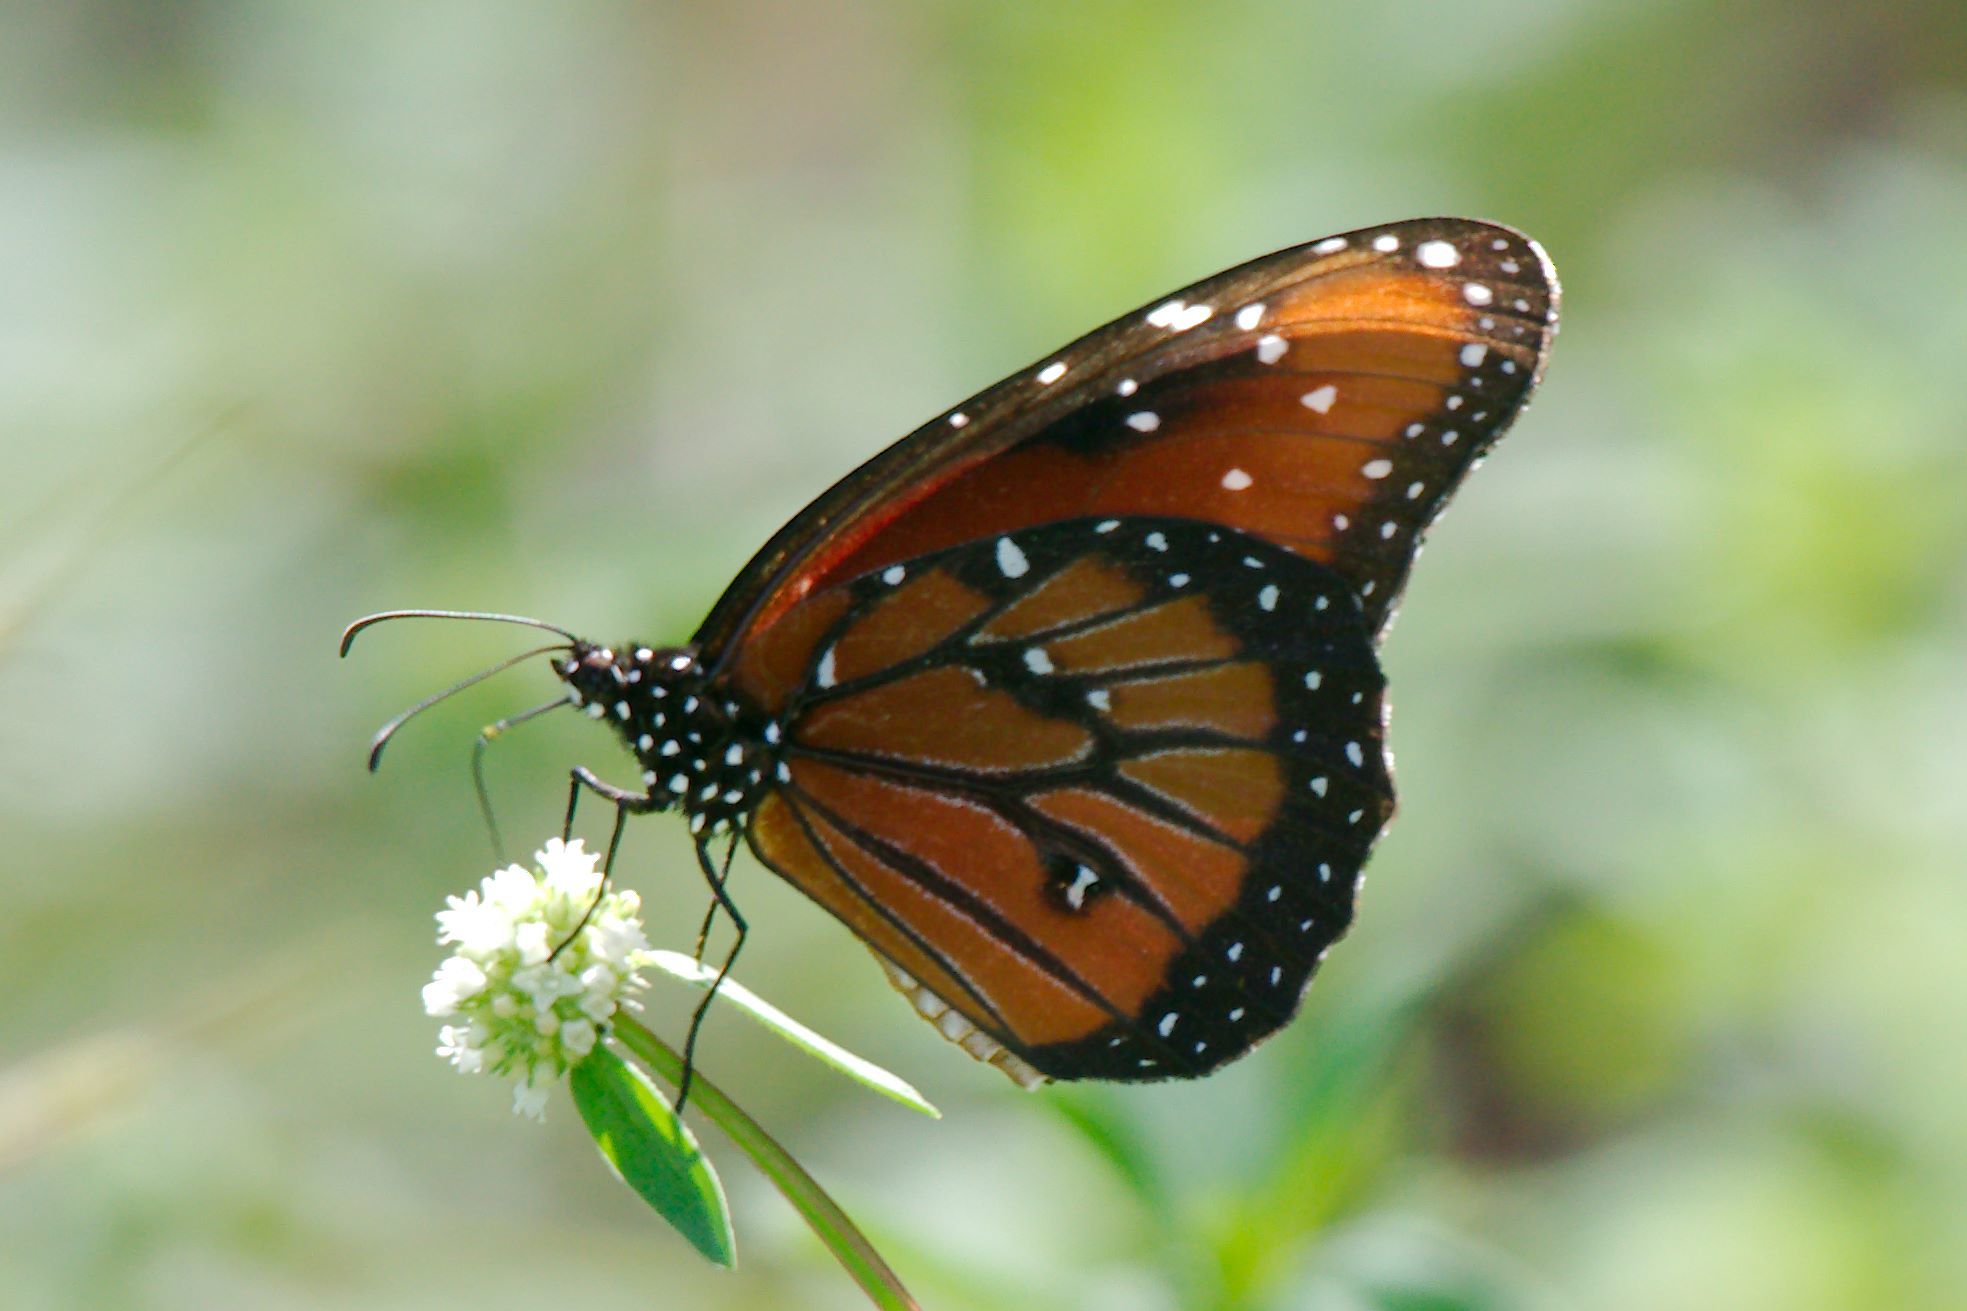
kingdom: Animalia
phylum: Arthropoda
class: Insecta
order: Lepidoptera
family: Nymphalidae
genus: Danaus
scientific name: Danaus gilippus
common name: Queen
